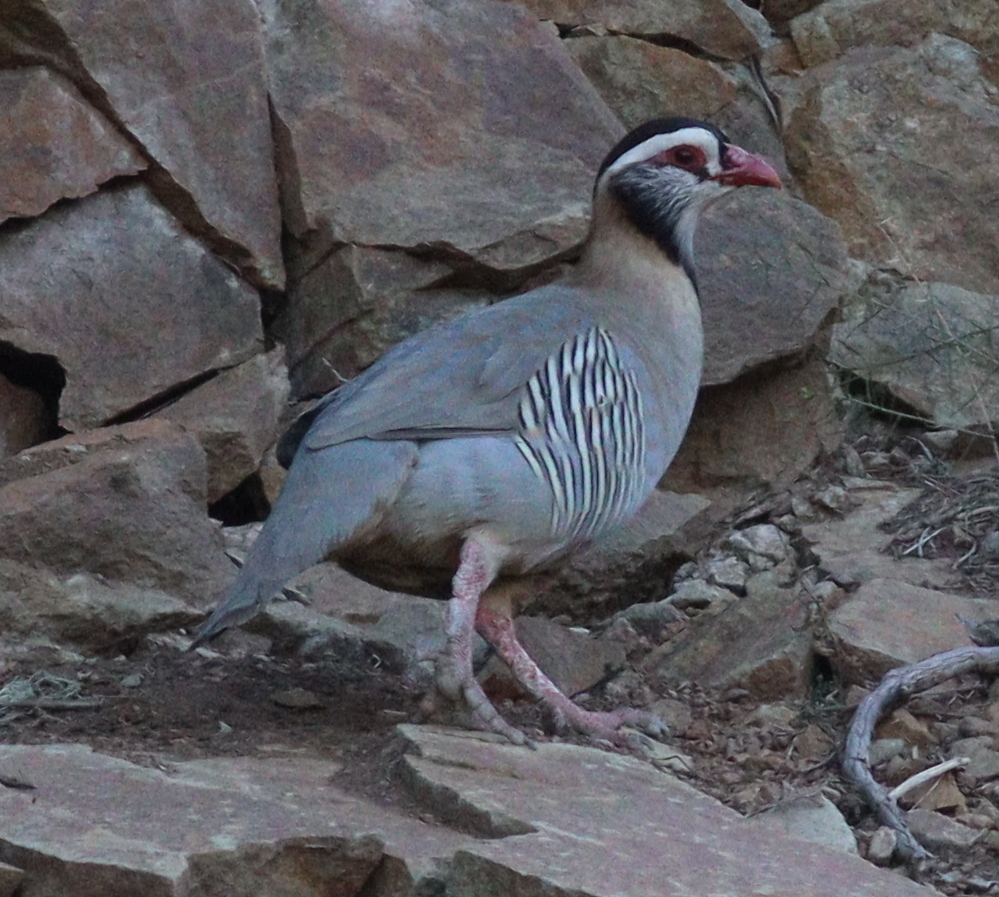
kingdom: Animalia
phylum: Chordata
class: Aves
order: Galliformes
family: Phasianidae
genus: Alectoris
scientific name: Alectoris melanocephala
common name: Arabian partridge
